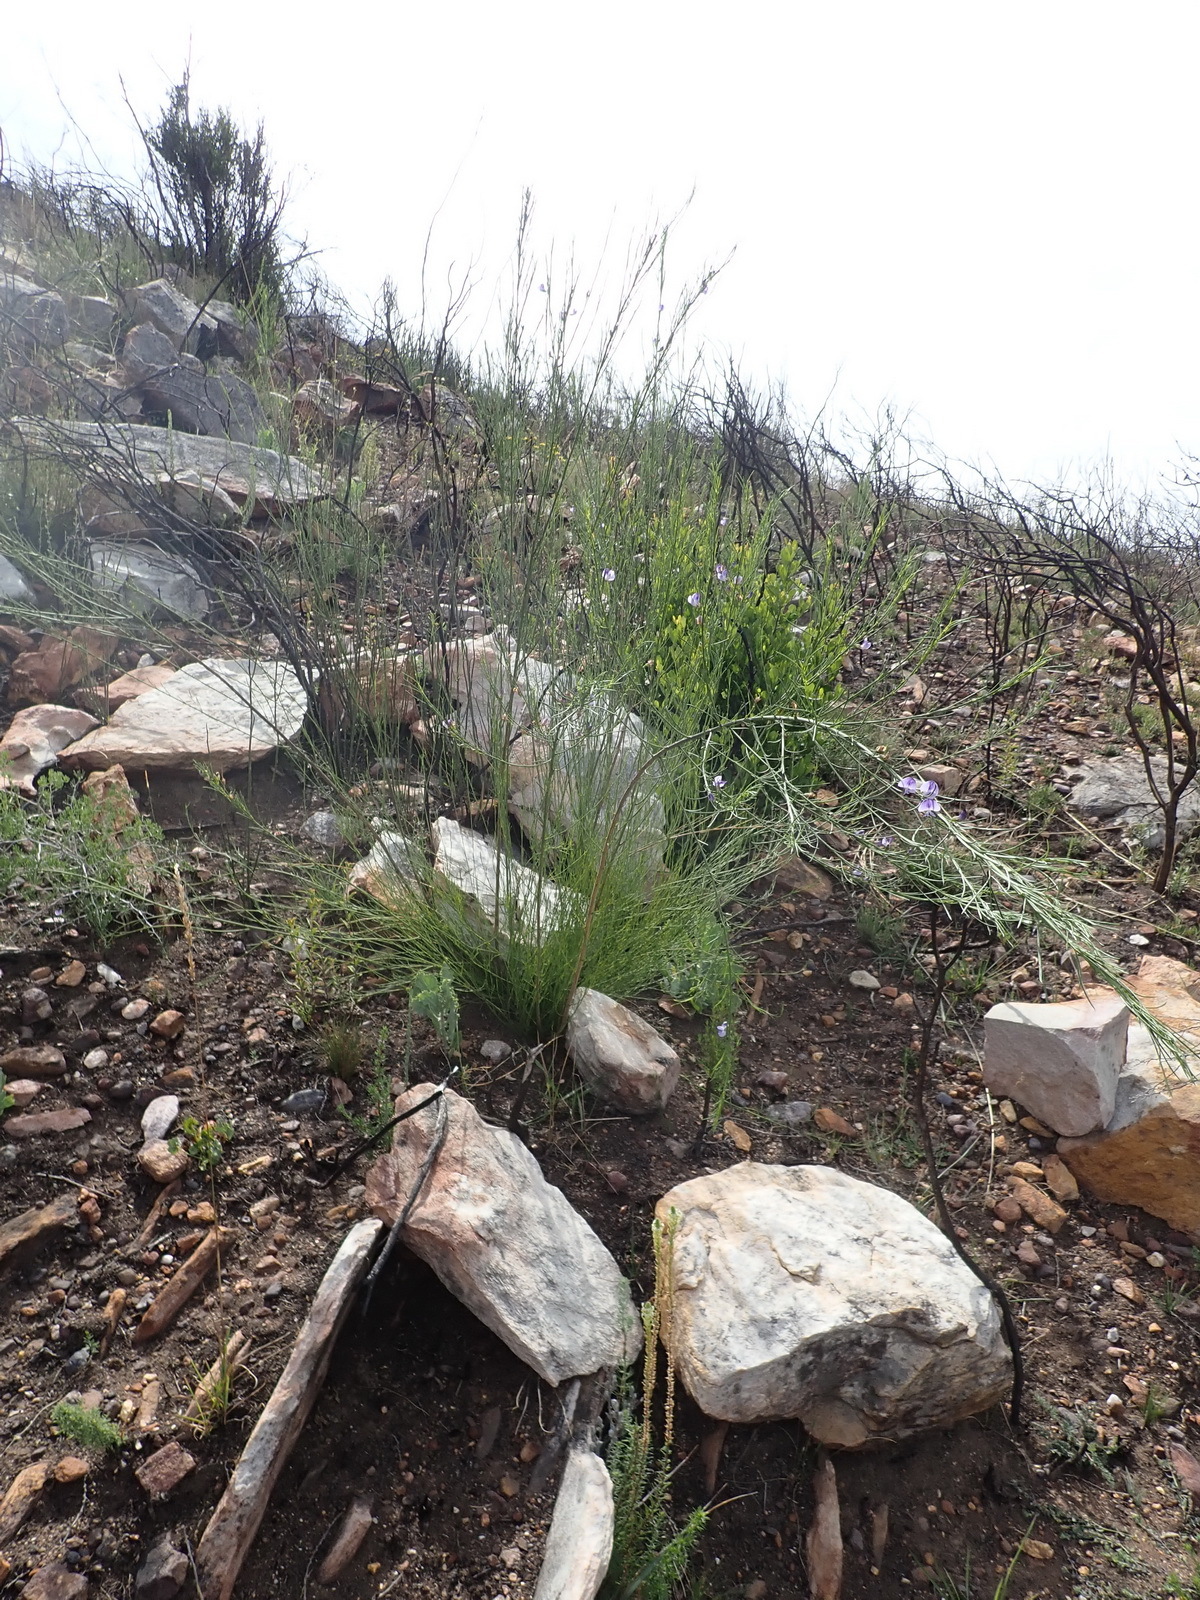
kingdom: Plantae
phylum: Tracheophyta
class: Magnoliopsida
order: Fabales
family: Fabaceae
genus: Psoralea
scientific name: Psoralea diturnerae
